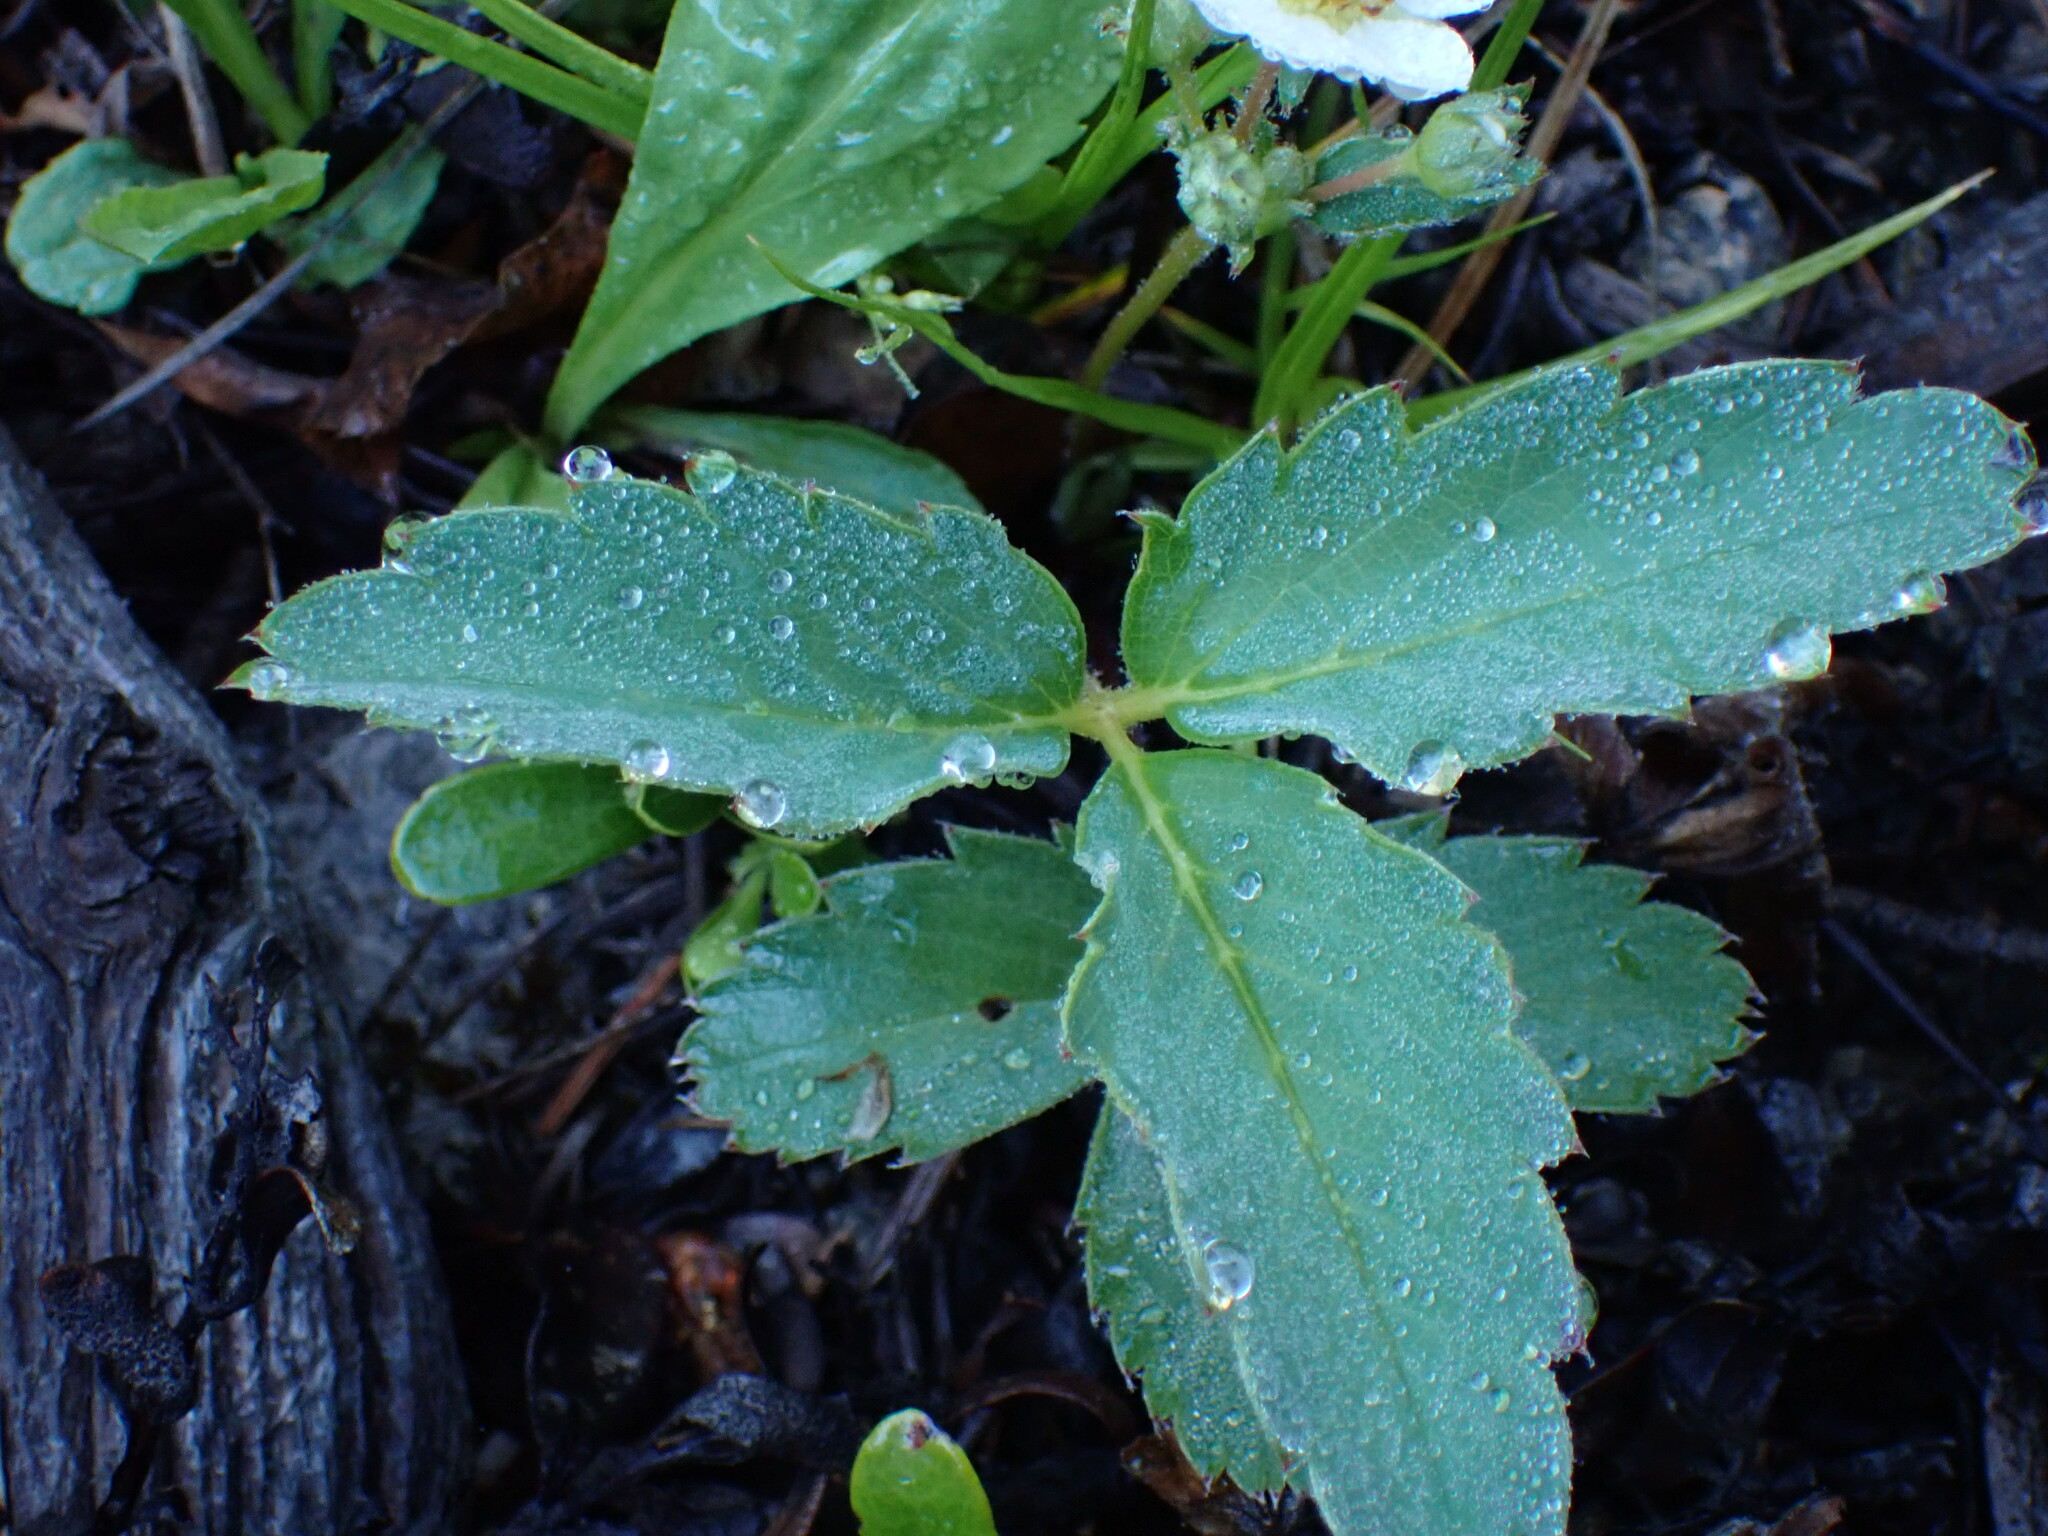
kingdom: Plantae
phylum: Tracheophyta
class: Magnoliopsida
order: Rosales
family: Rosaceae
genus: Fragaria
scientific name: Fragaria virginiana
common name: Thickleaved wild strawberry
